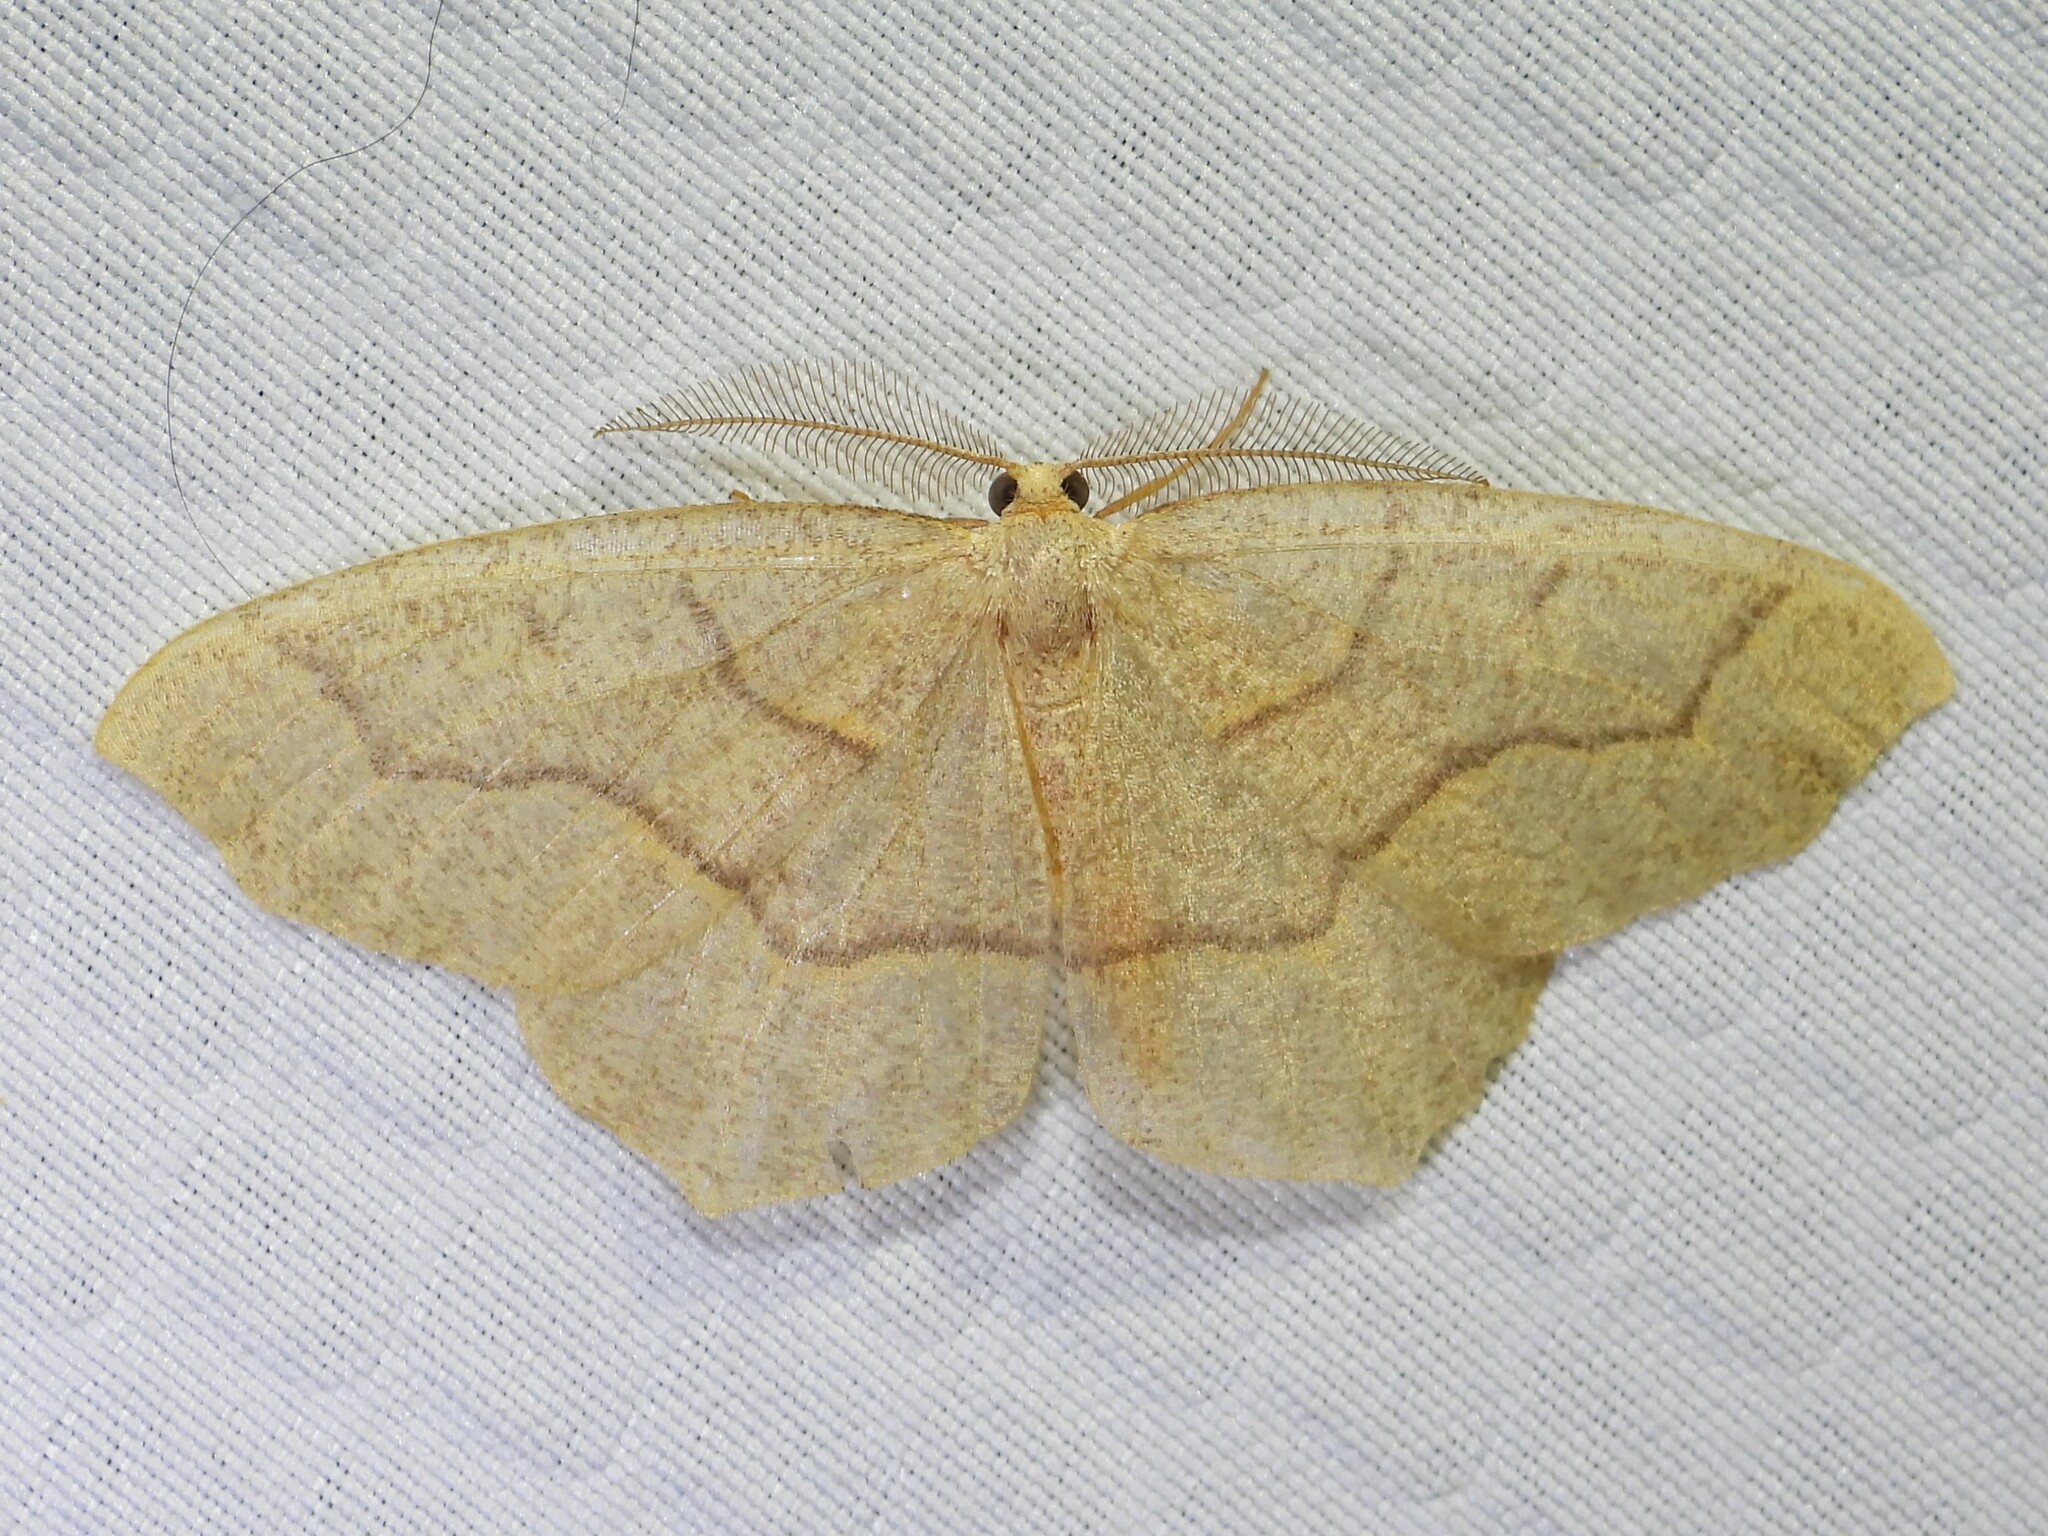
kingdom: Animalia
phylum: Arthropoda
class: Insecta
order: Lepidoptera
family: Geometridae
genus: Lambdina
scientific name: Lambdina fiscellaria
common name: Hemlock looper
